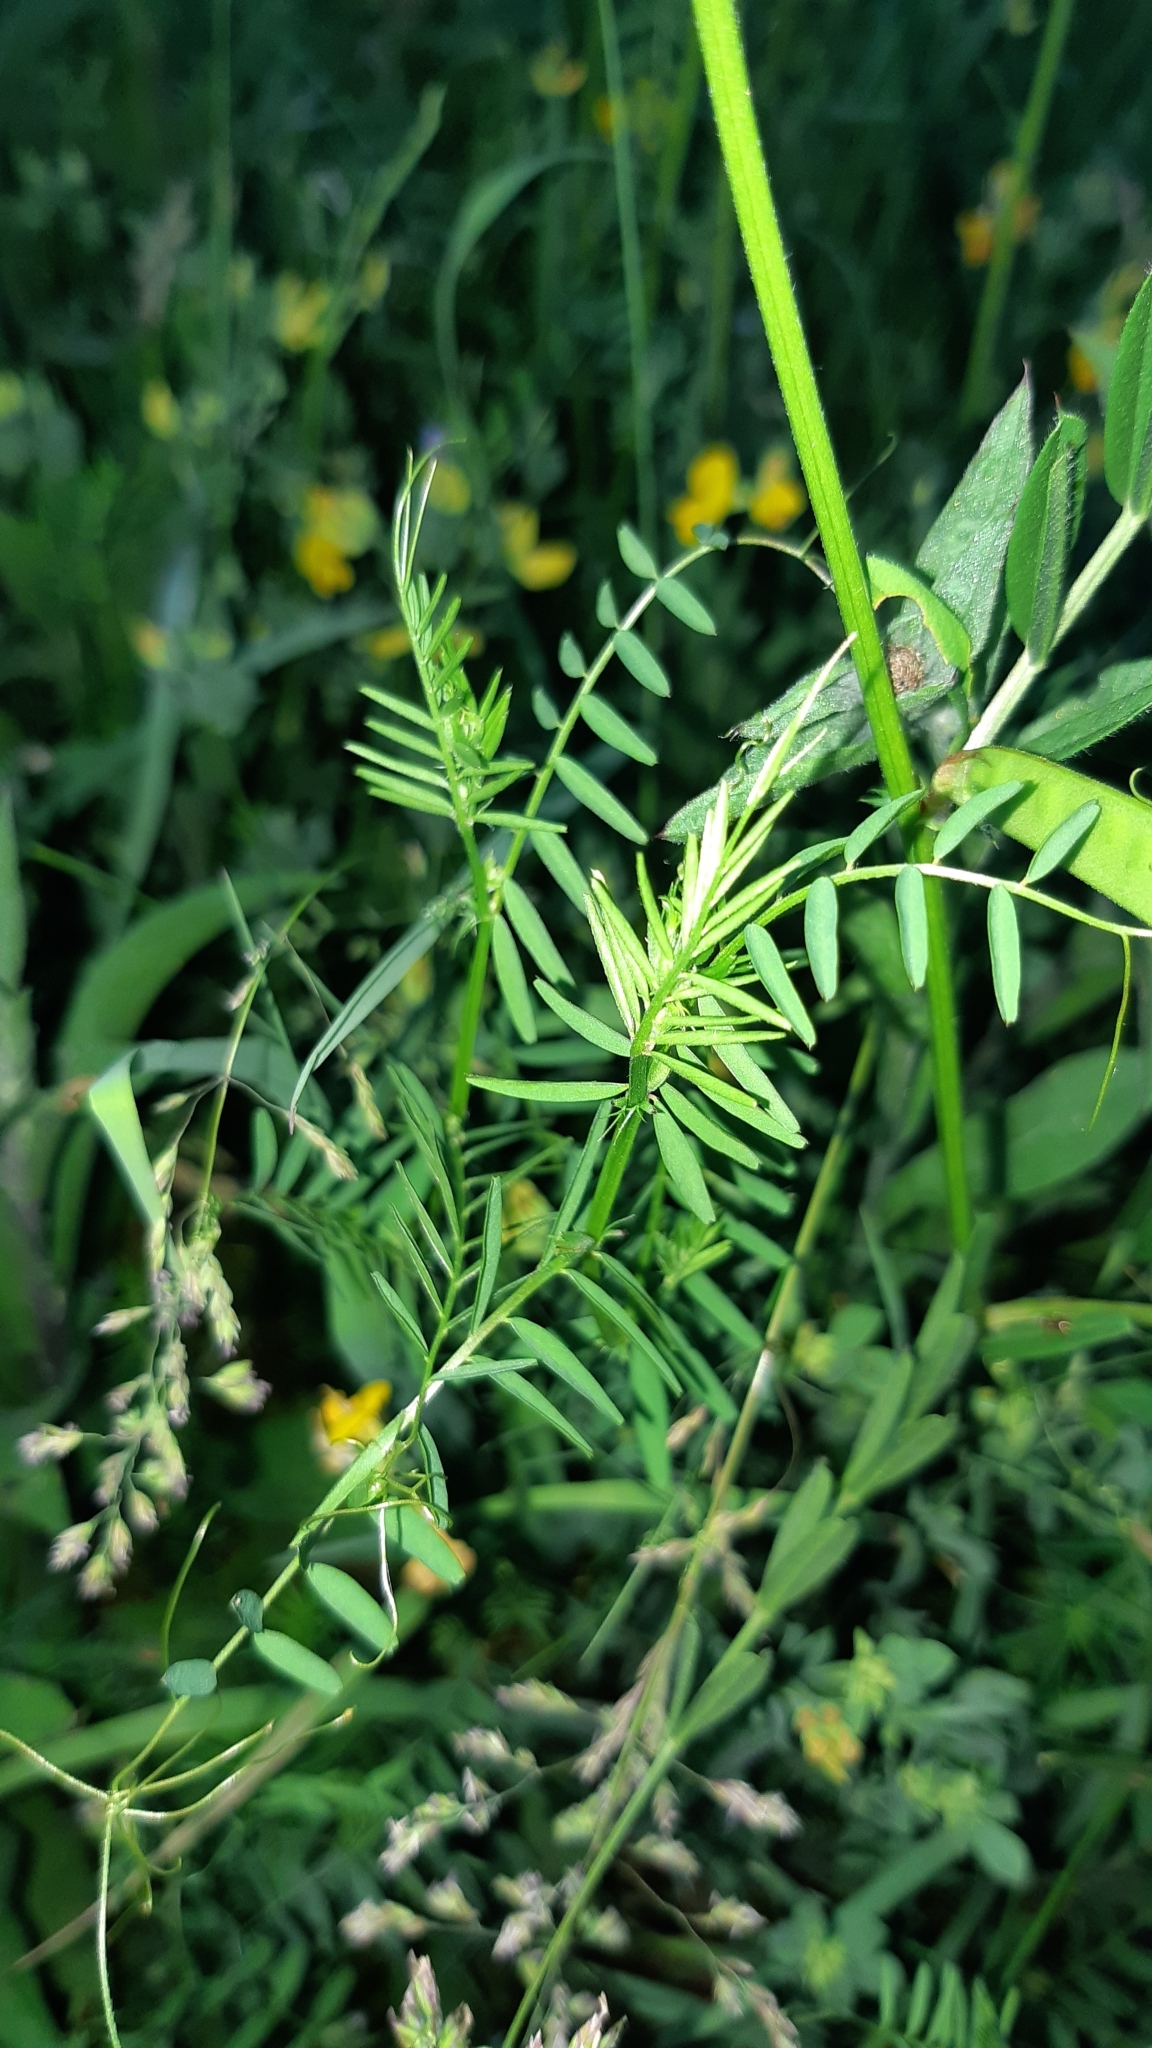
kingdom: Plantae
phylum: Tracheophyta
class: Magnoliopsida
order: Fabales
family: Fabaceae
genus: Vicia
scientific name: Vicia sativa
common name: Garden vetch
